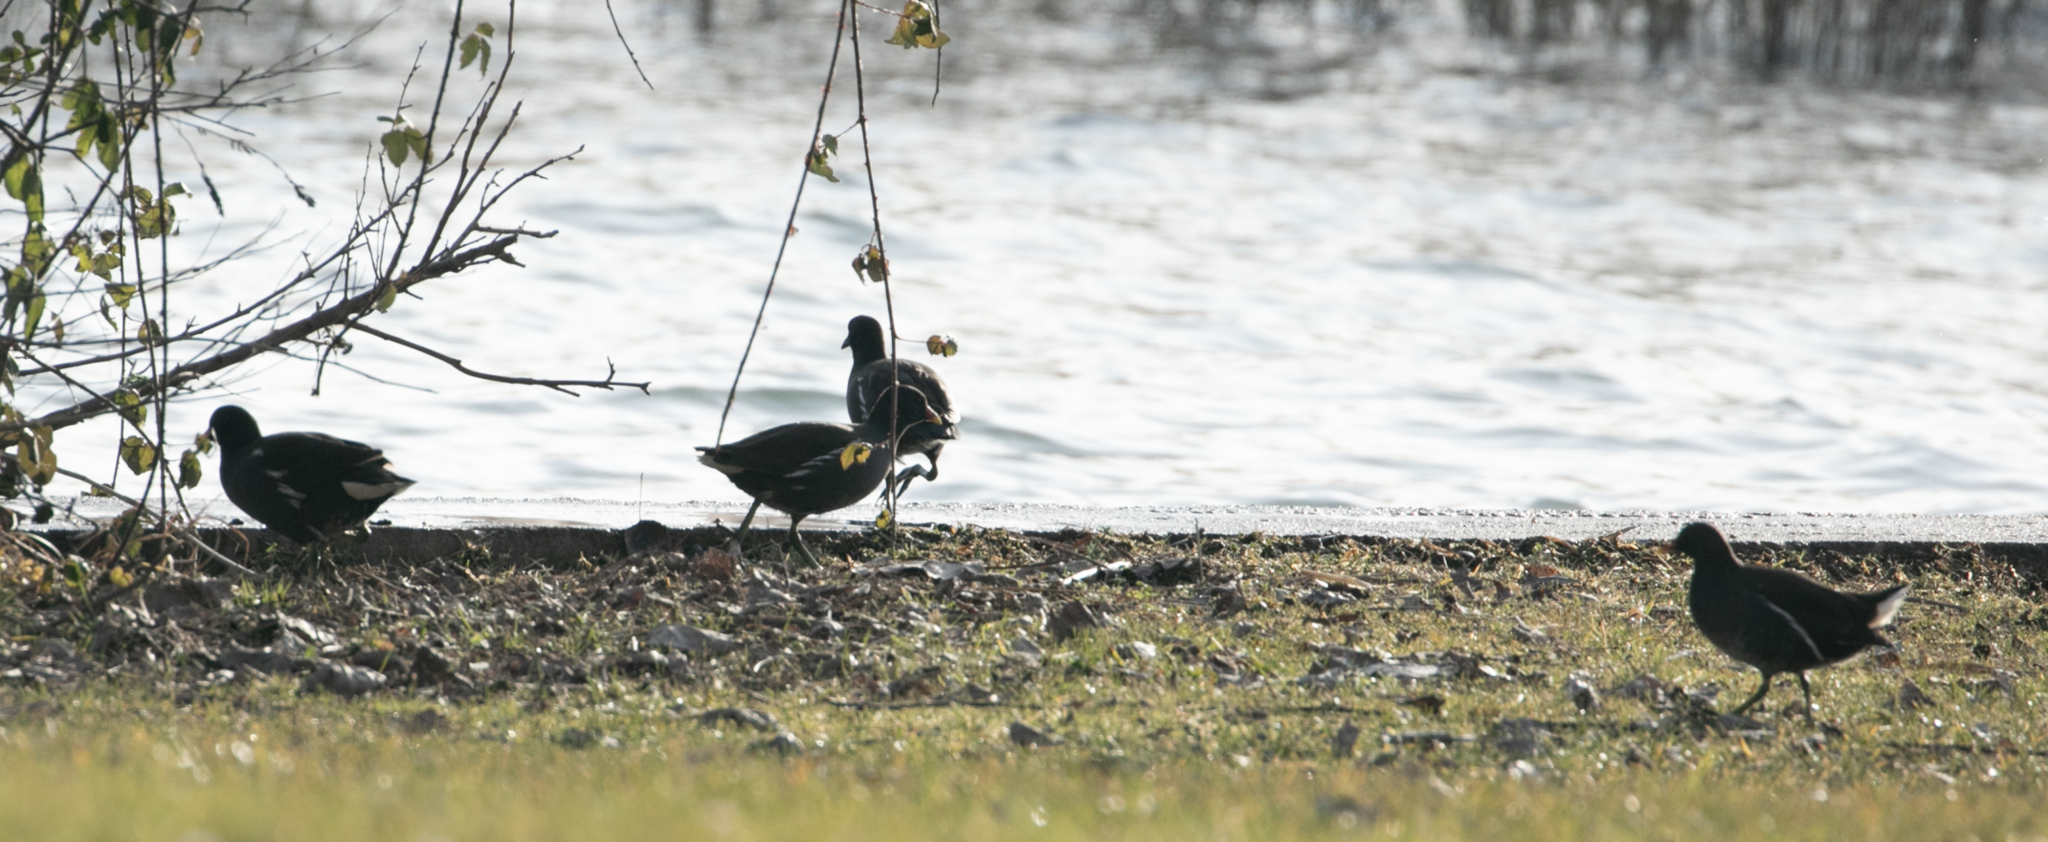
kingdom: Animalia
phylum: Chordata
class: Aves
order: Gruiformes
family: Rallidae
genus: Gallinula
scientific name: Gallinula chloropus
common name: Common moorhen
